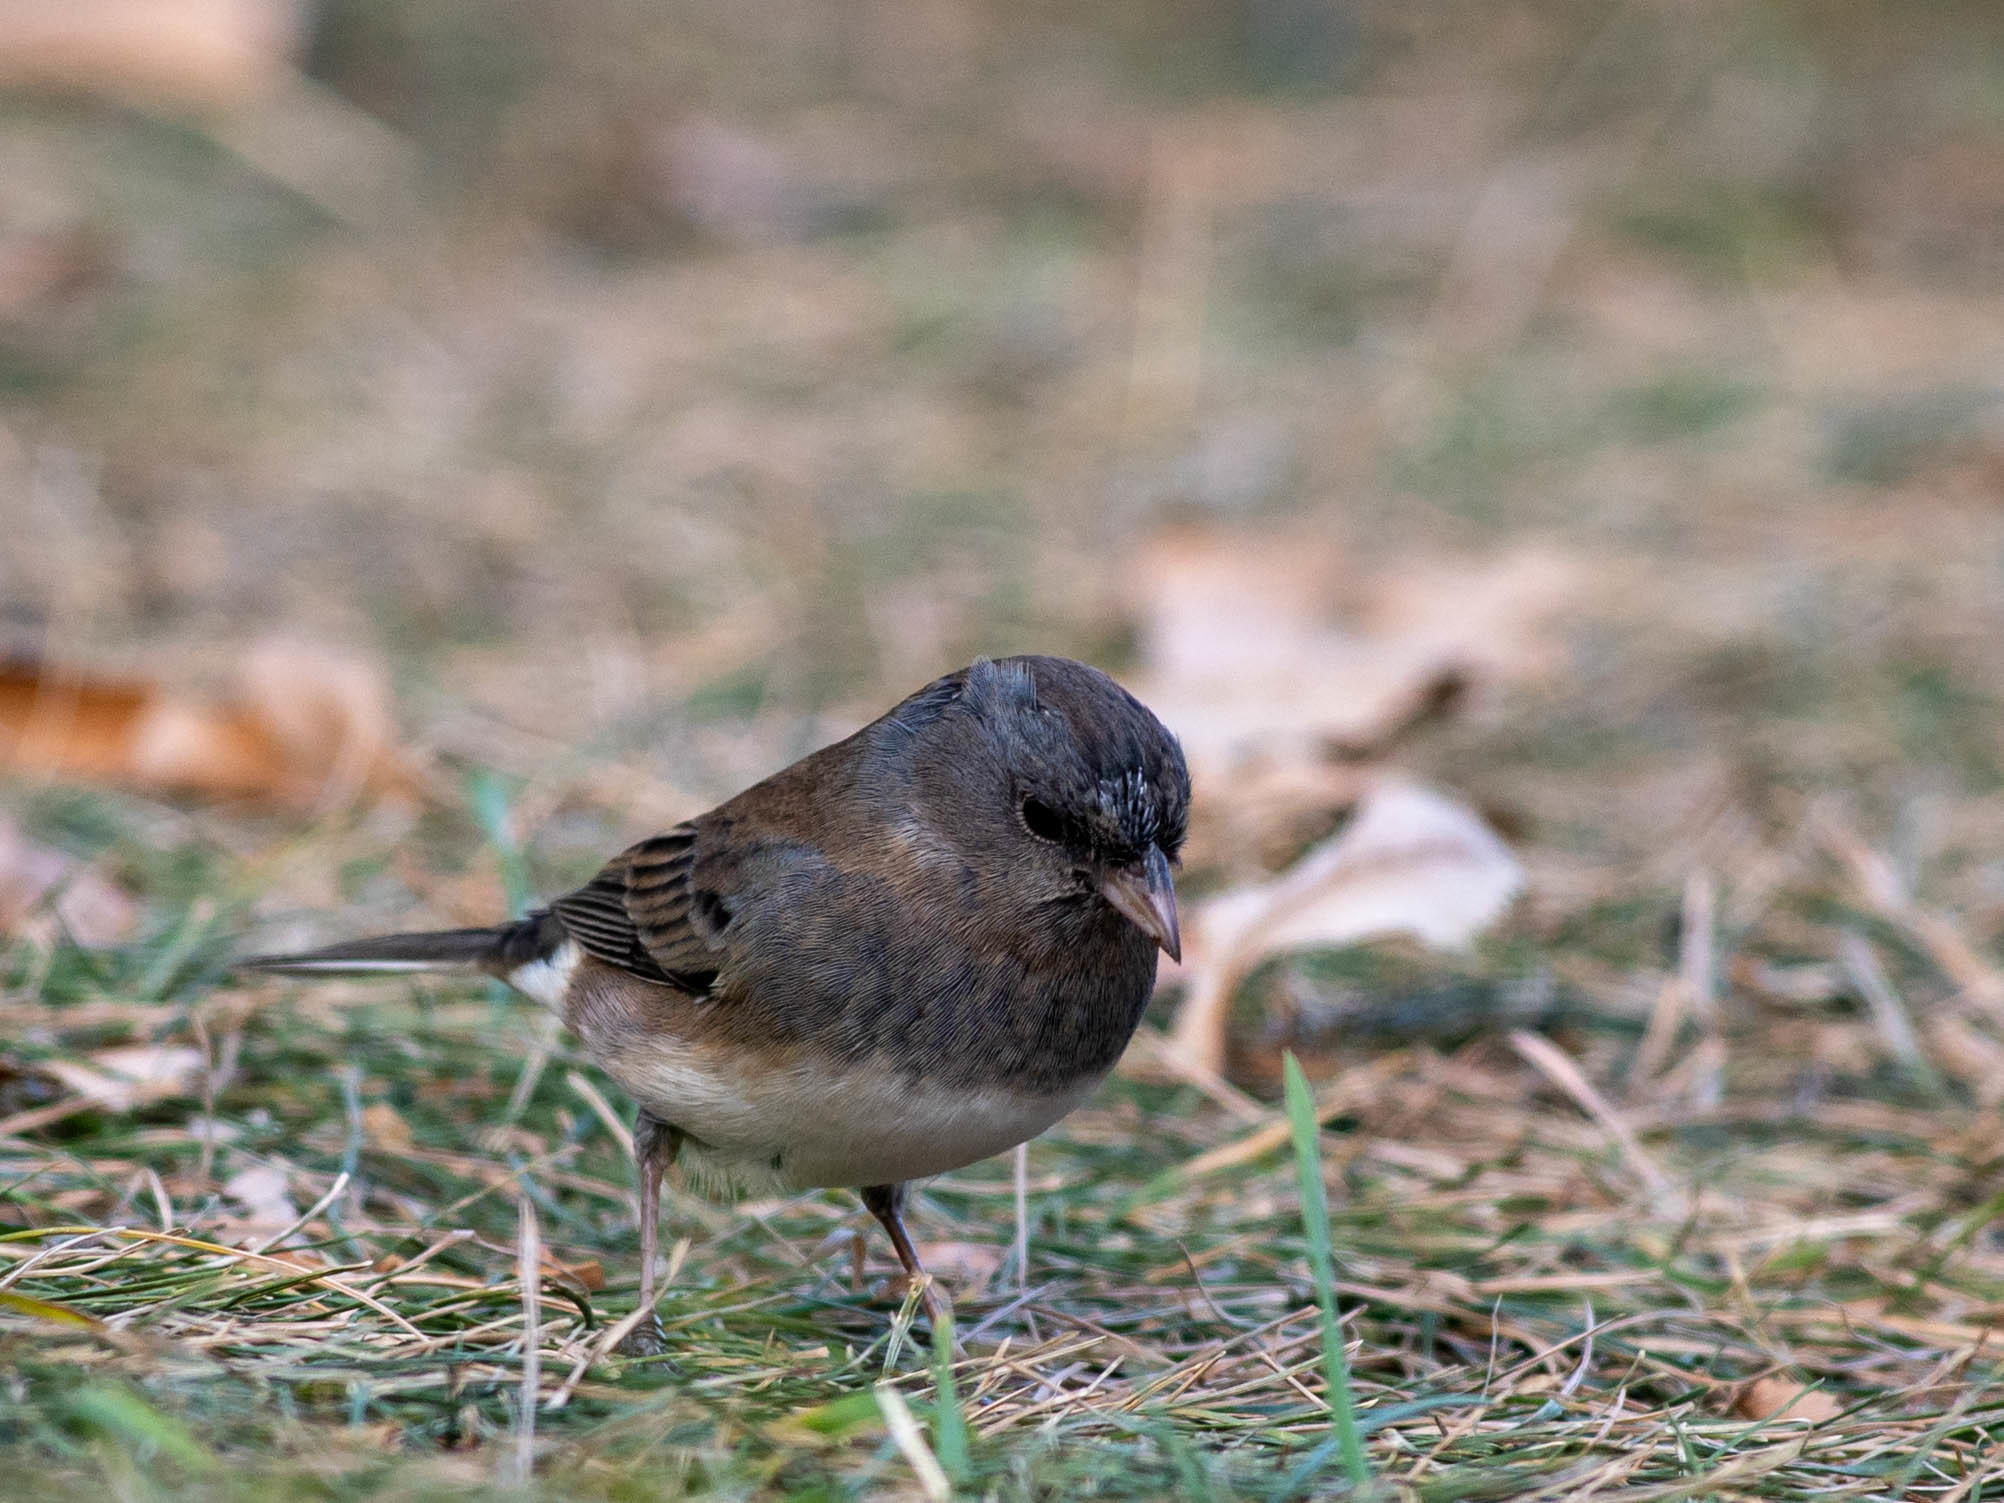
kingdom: Animalia
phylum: Chordata
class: Aves
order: Passeriformes
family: Passerellidae
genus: Junco
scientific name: Junco hyemalis
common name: Dark-eyed junco
